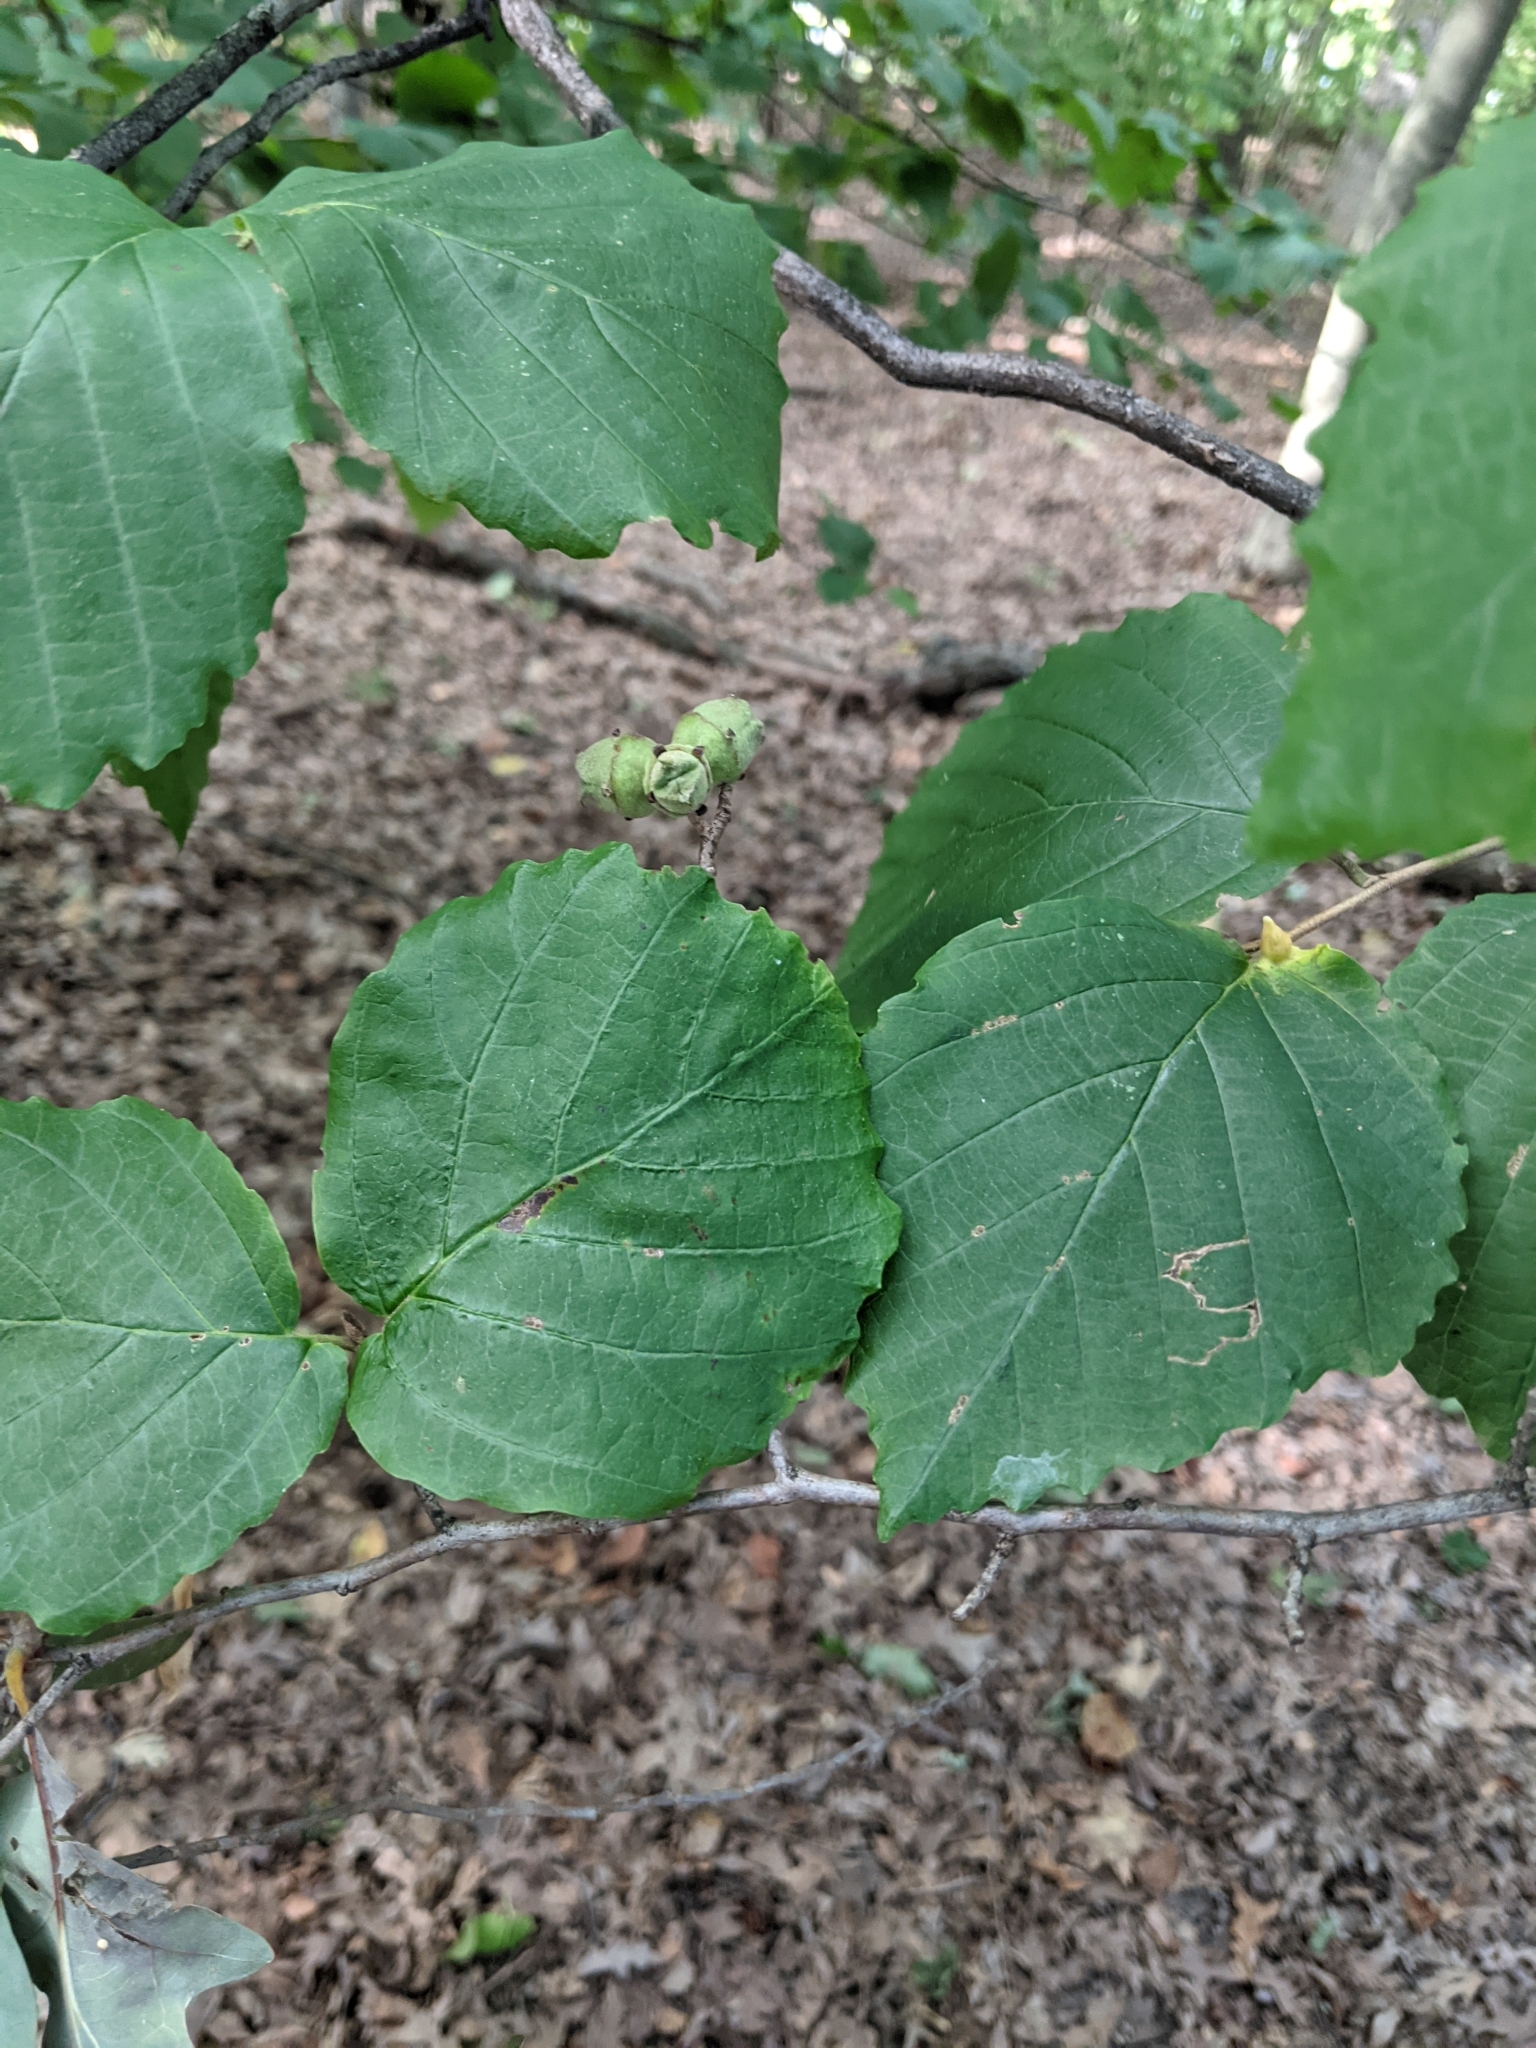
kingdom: Plantae
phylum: Tracheophyta
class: Magnoliopsida
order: Saxifragales
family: Hamamelidaceae
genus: Hamamelis
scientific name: Hamamelis virginiana
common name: Witch-hazel
